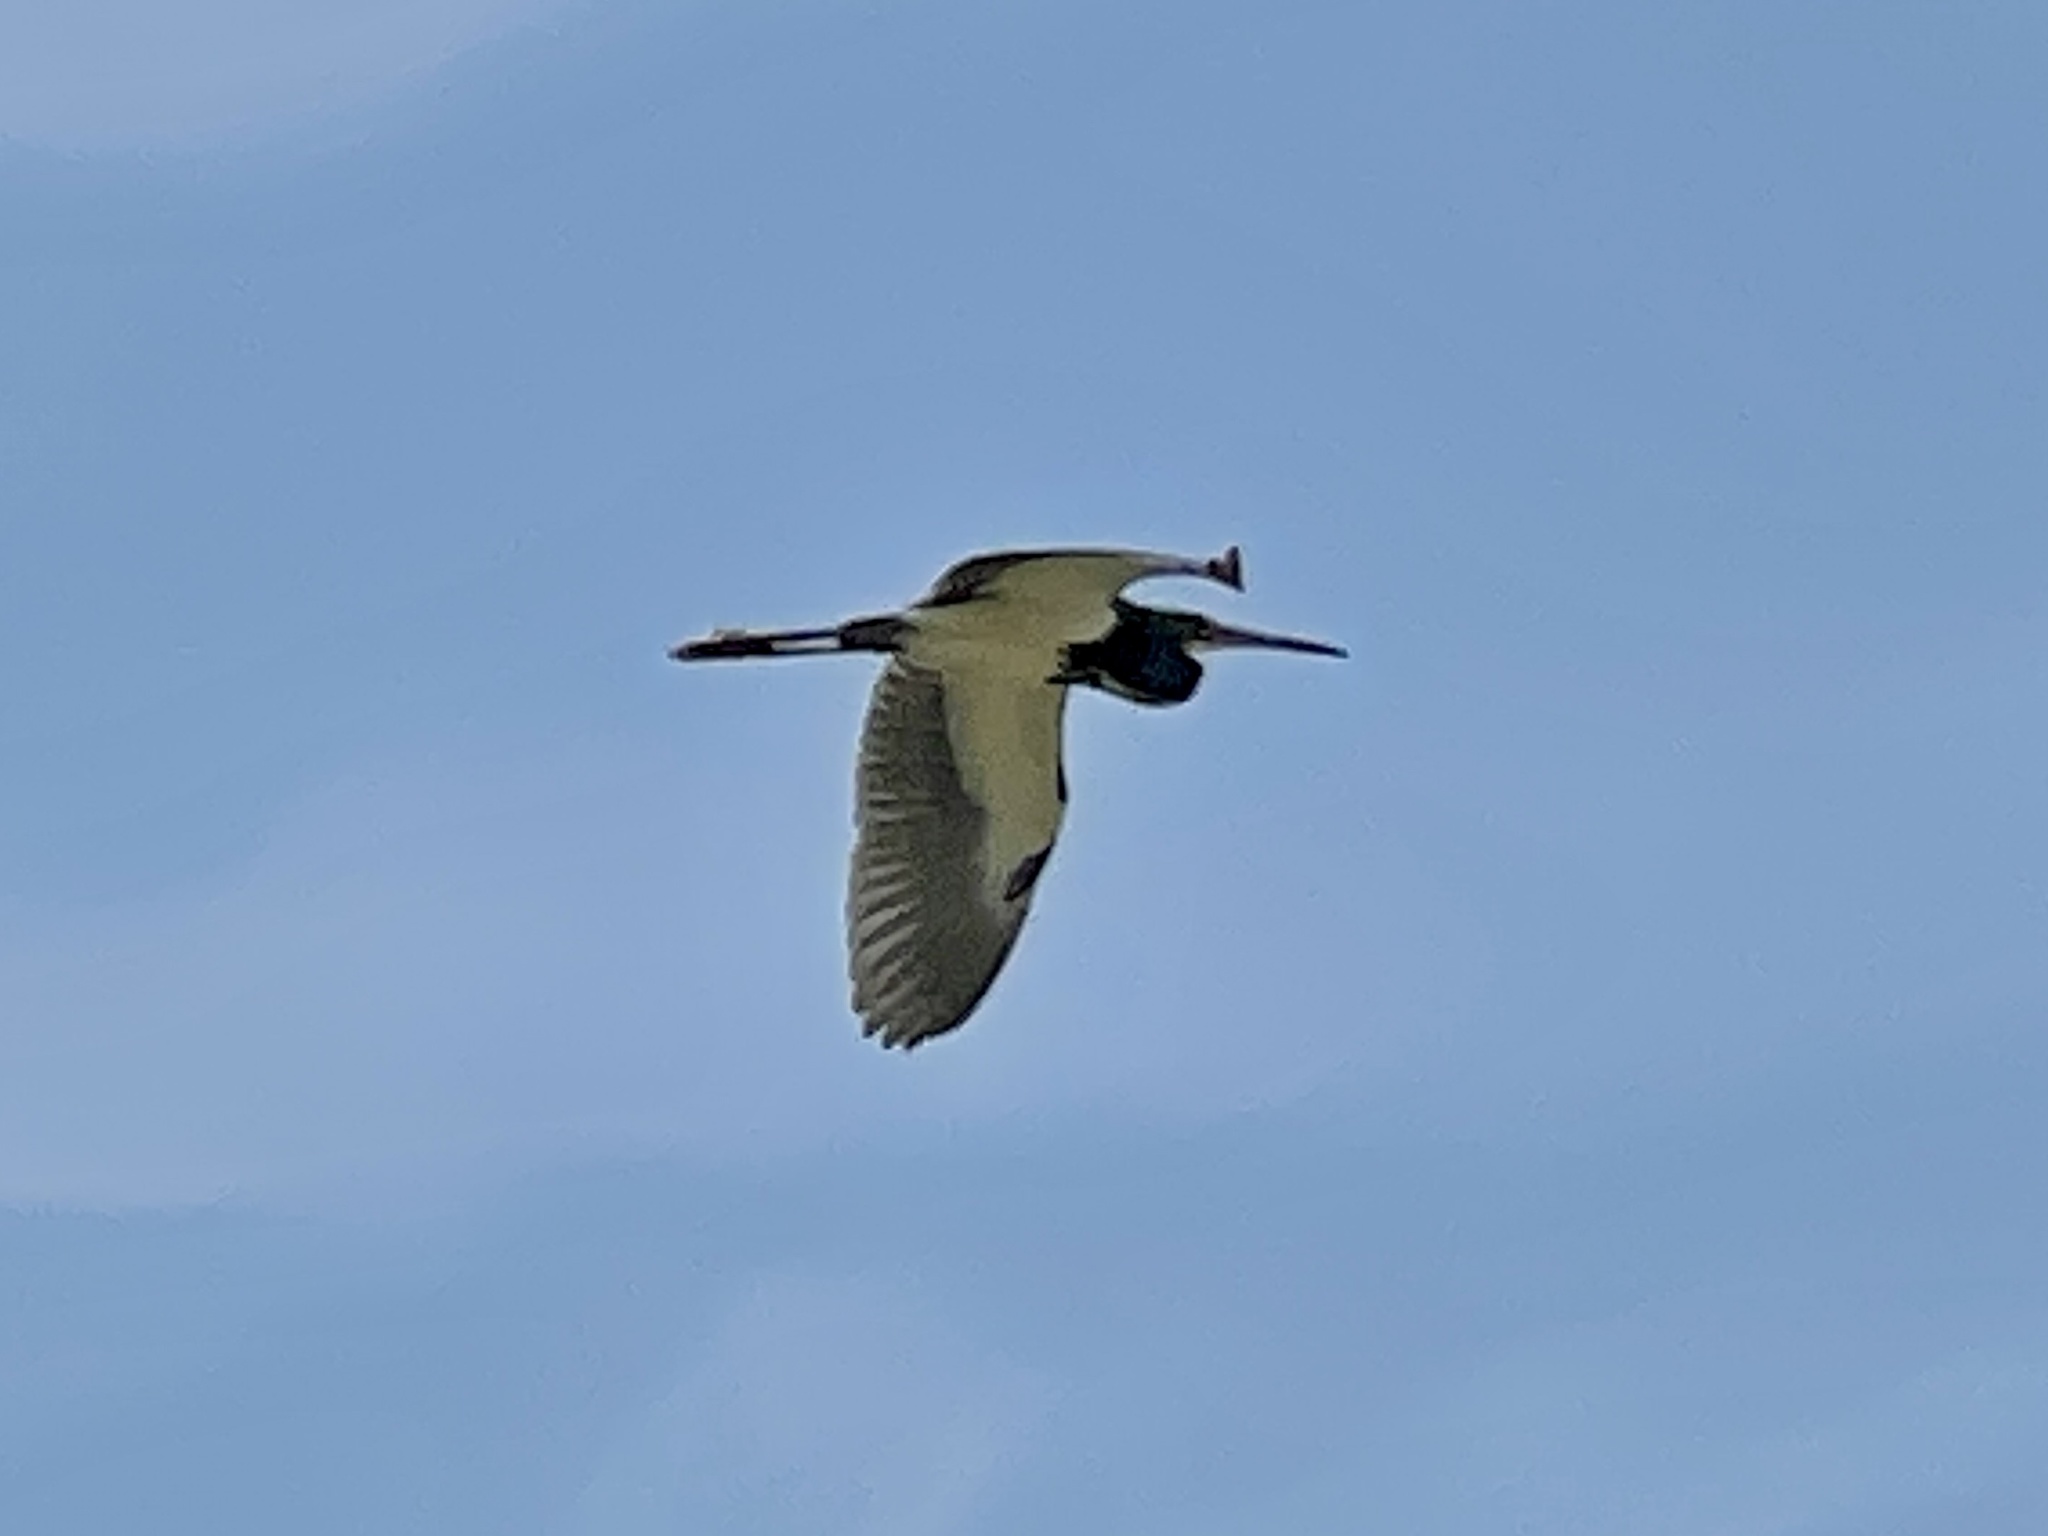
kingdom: Animalia
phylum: Chordata
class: Aves
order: Pelecaniformes
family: Ardeidae
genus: Egretta
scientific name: Egretta tricolor
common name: Tricolored heron
